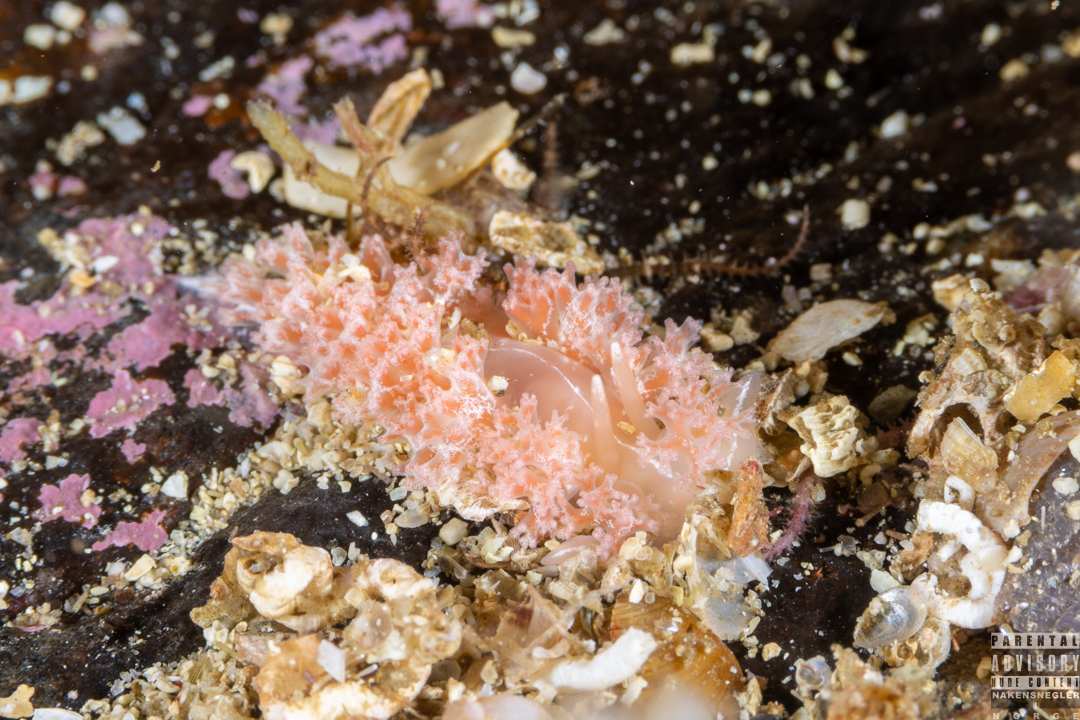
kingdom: Animalia
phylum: Mollusca
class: Gastropoda
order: Nudibranchia
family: Heroidae
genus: Hero
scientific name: Hero formosa
